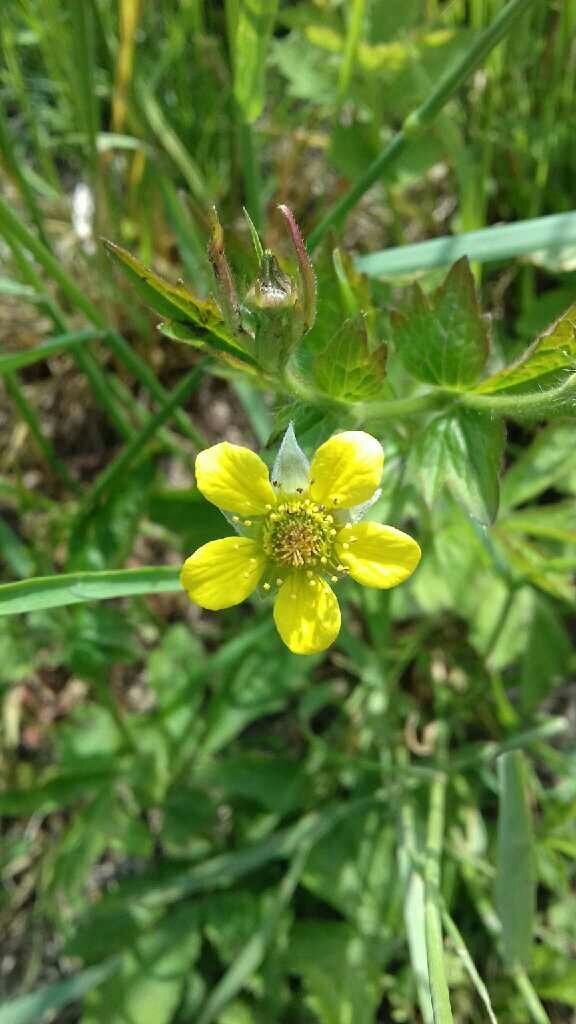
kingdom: Plantae
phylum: Tracheophyta
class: Magnoliopsida
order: Rosales
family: Rosaceae
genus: Geum
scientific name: Geum urbanum
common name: Wood avens
